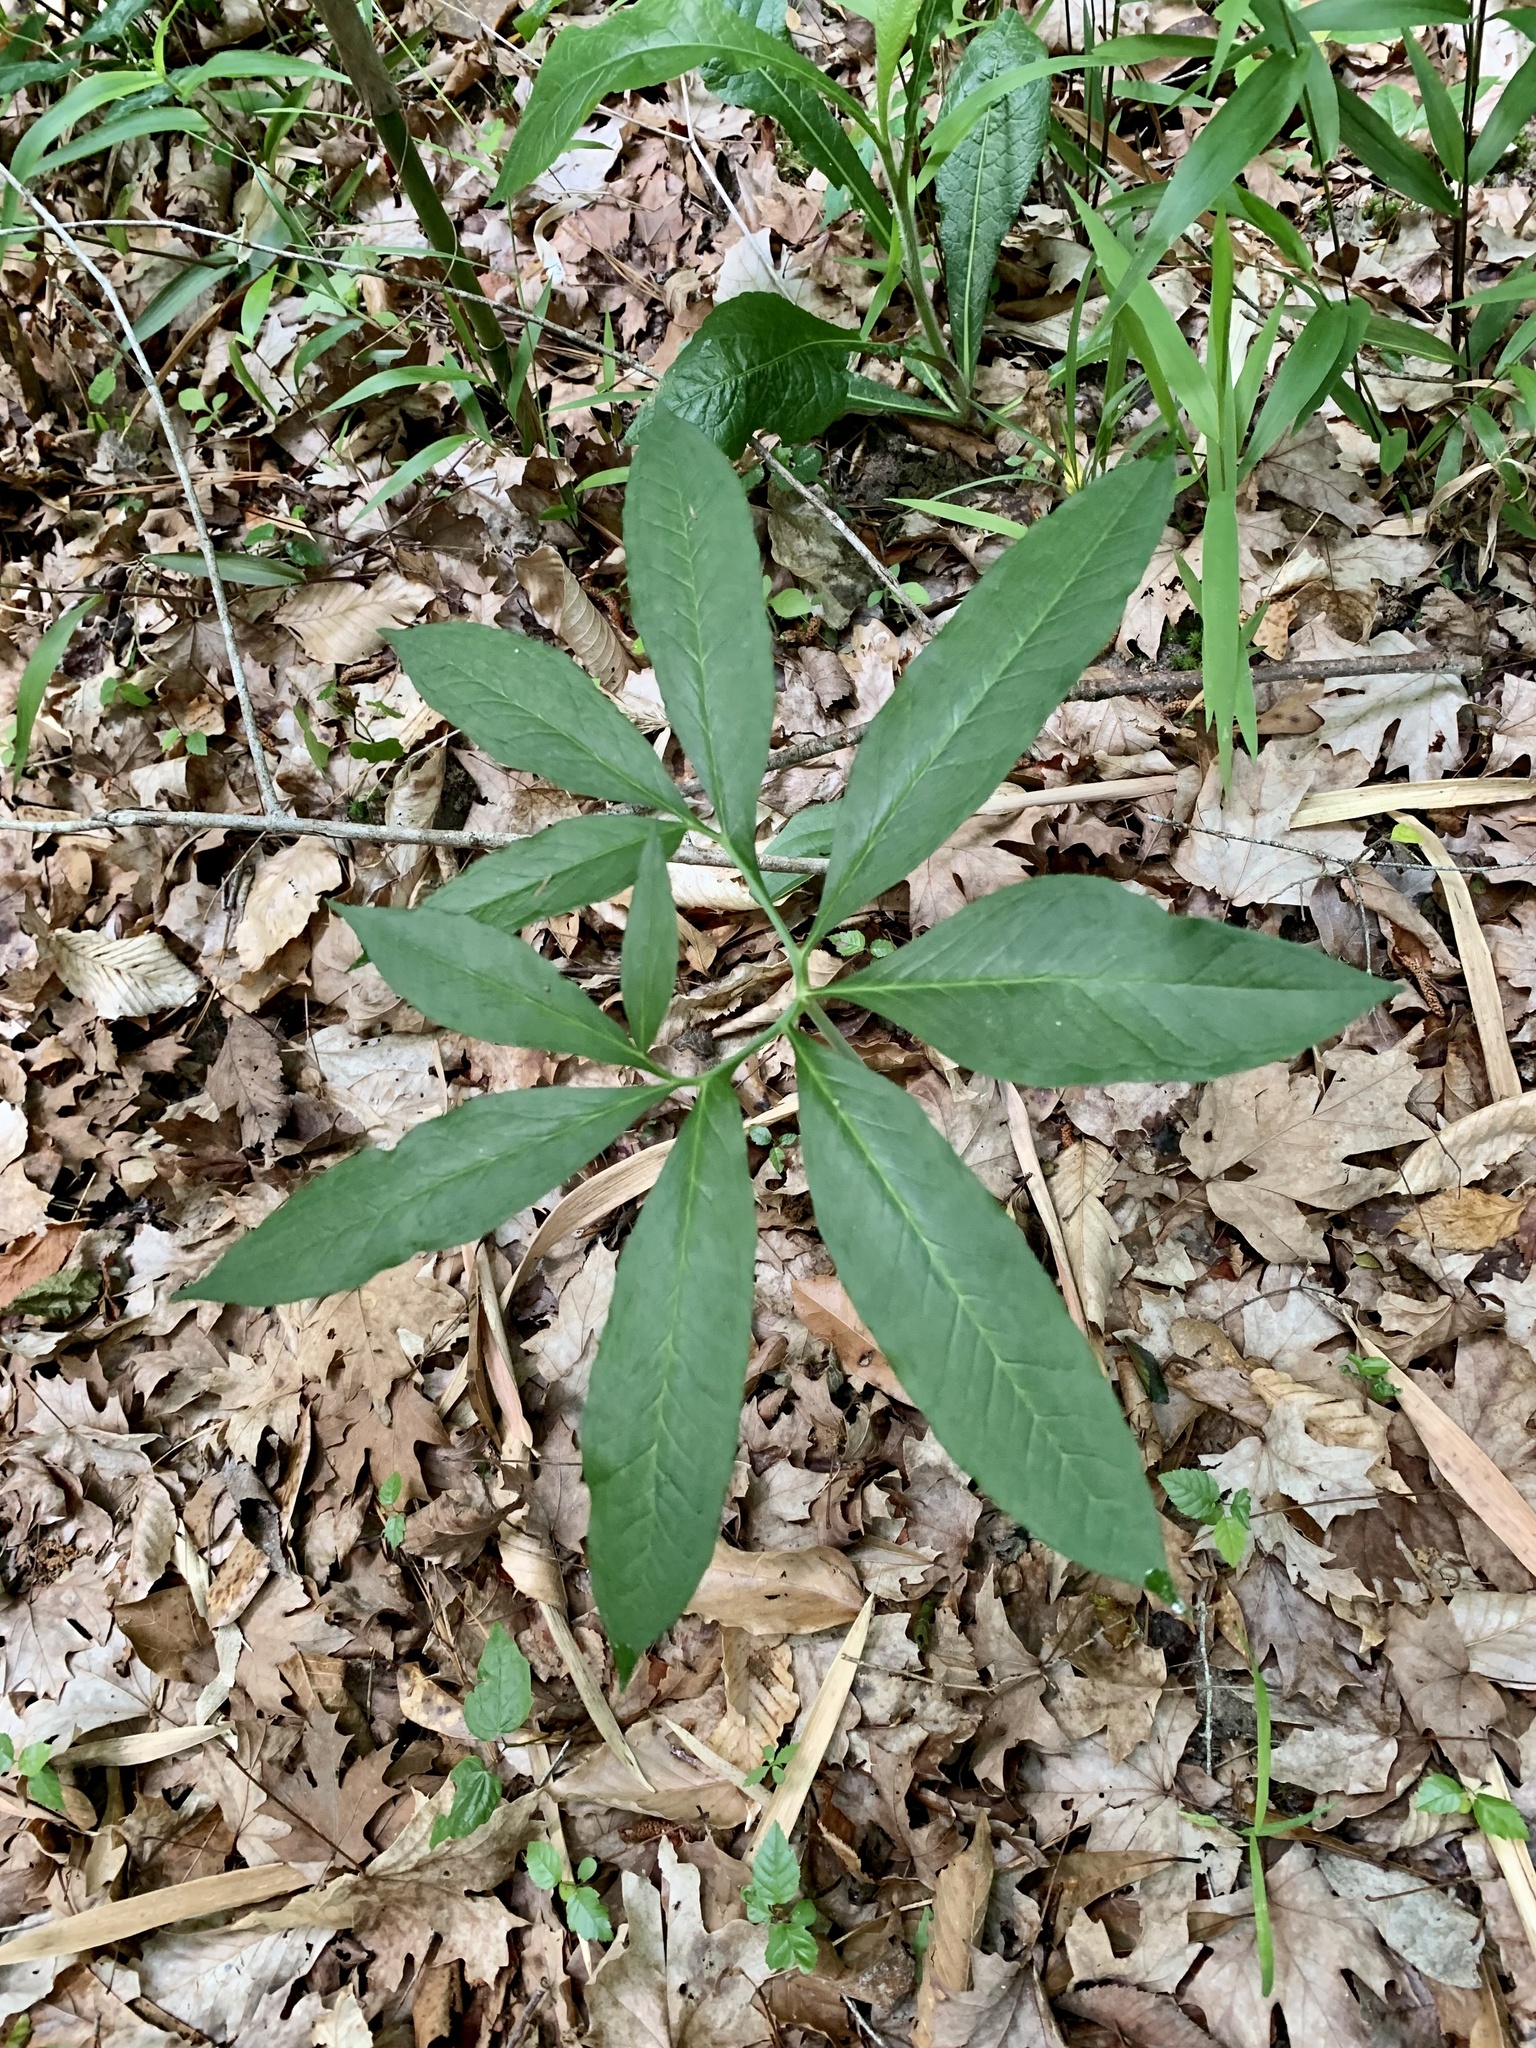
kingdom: Plantae
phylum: Tracheophyta
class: Liliopsida
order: Alismatales
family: Araceae
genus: Arisaema
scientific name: Arisaema dracontium
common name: Dragon-arum
